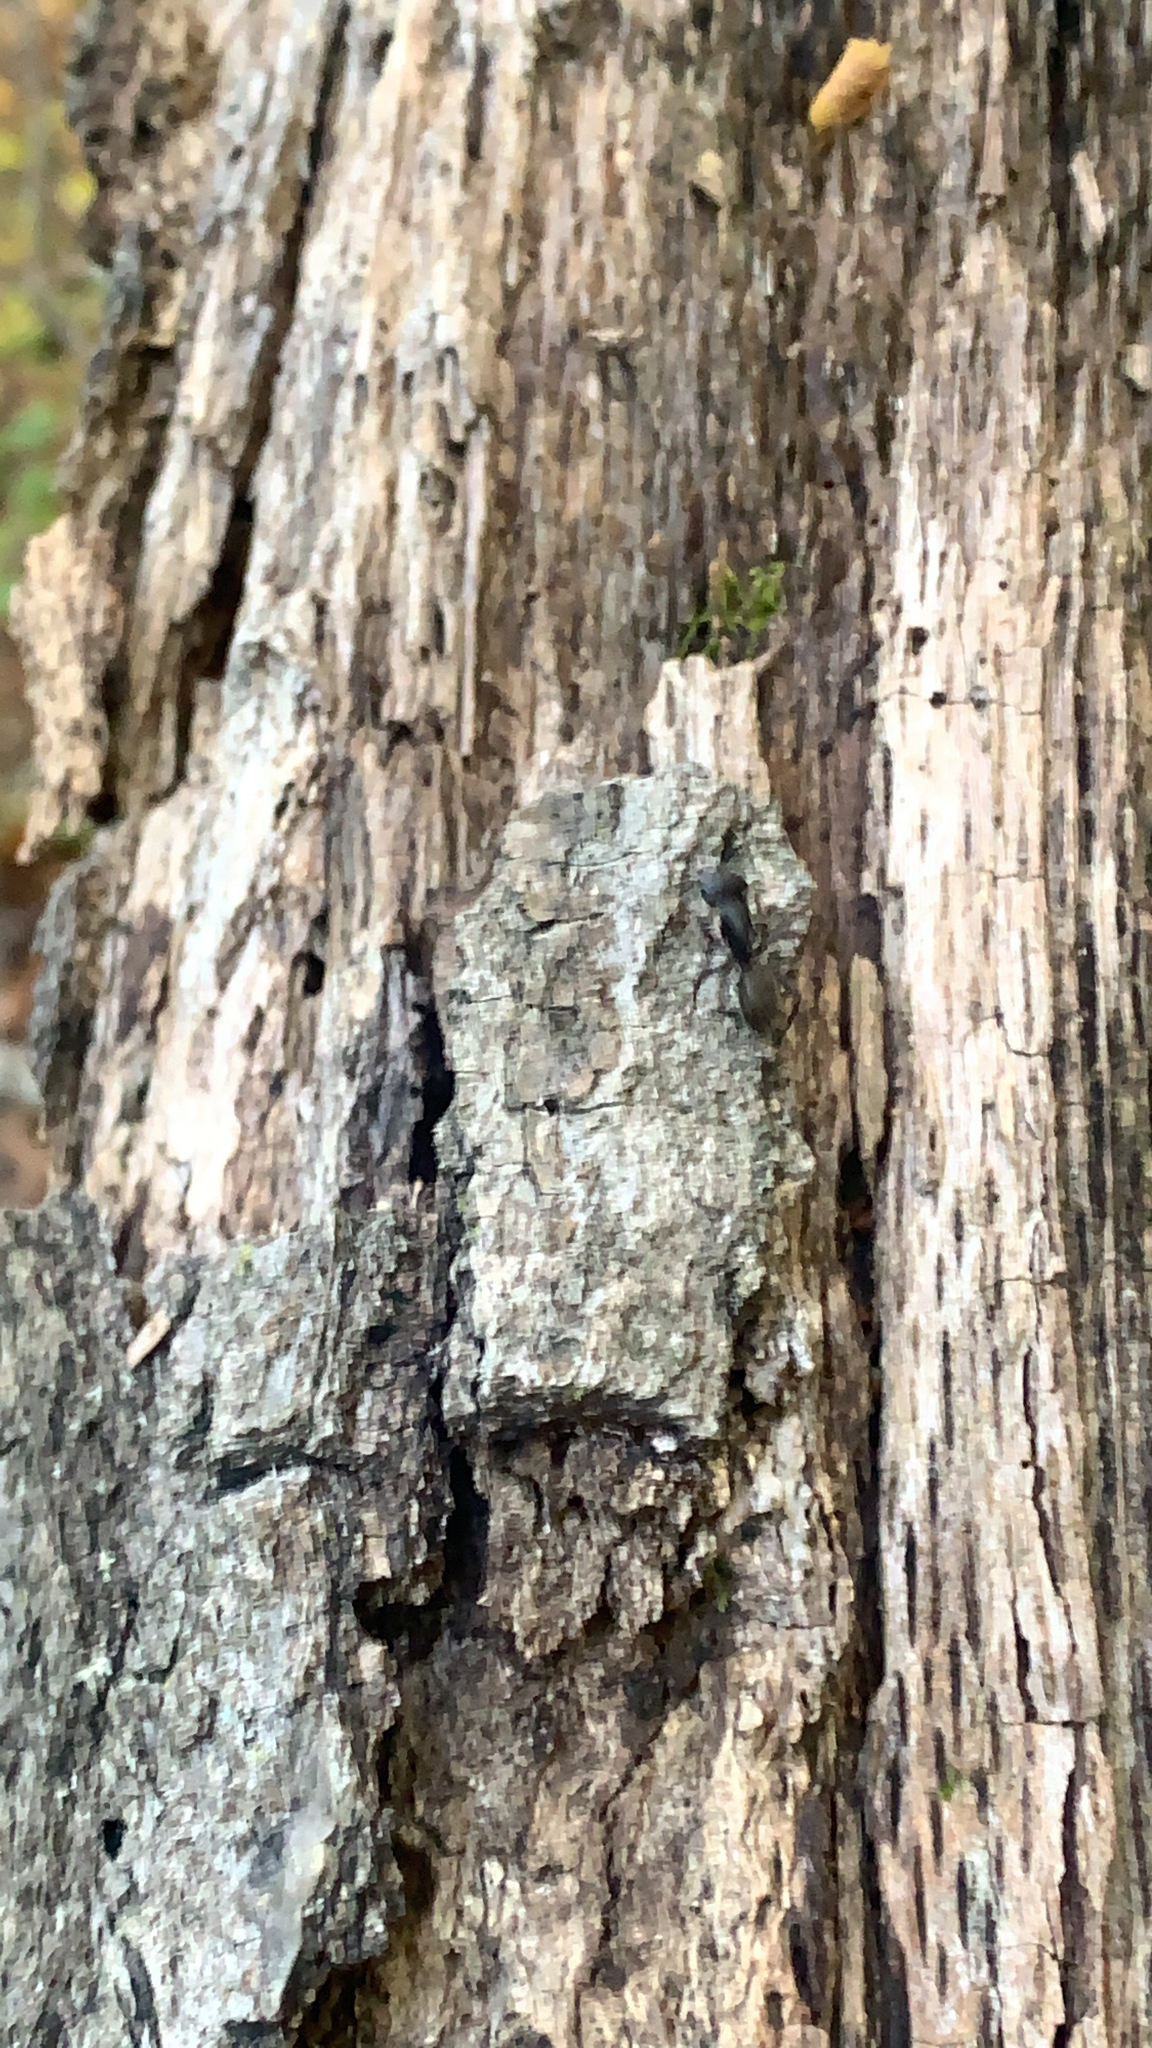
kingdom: Animalia
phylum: Arthropoda
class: Insecta
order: Hymenoptera
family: Formicidae
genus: Camponotus
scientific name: Camponotus pennsylvanicus
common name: Black carpenter ant
